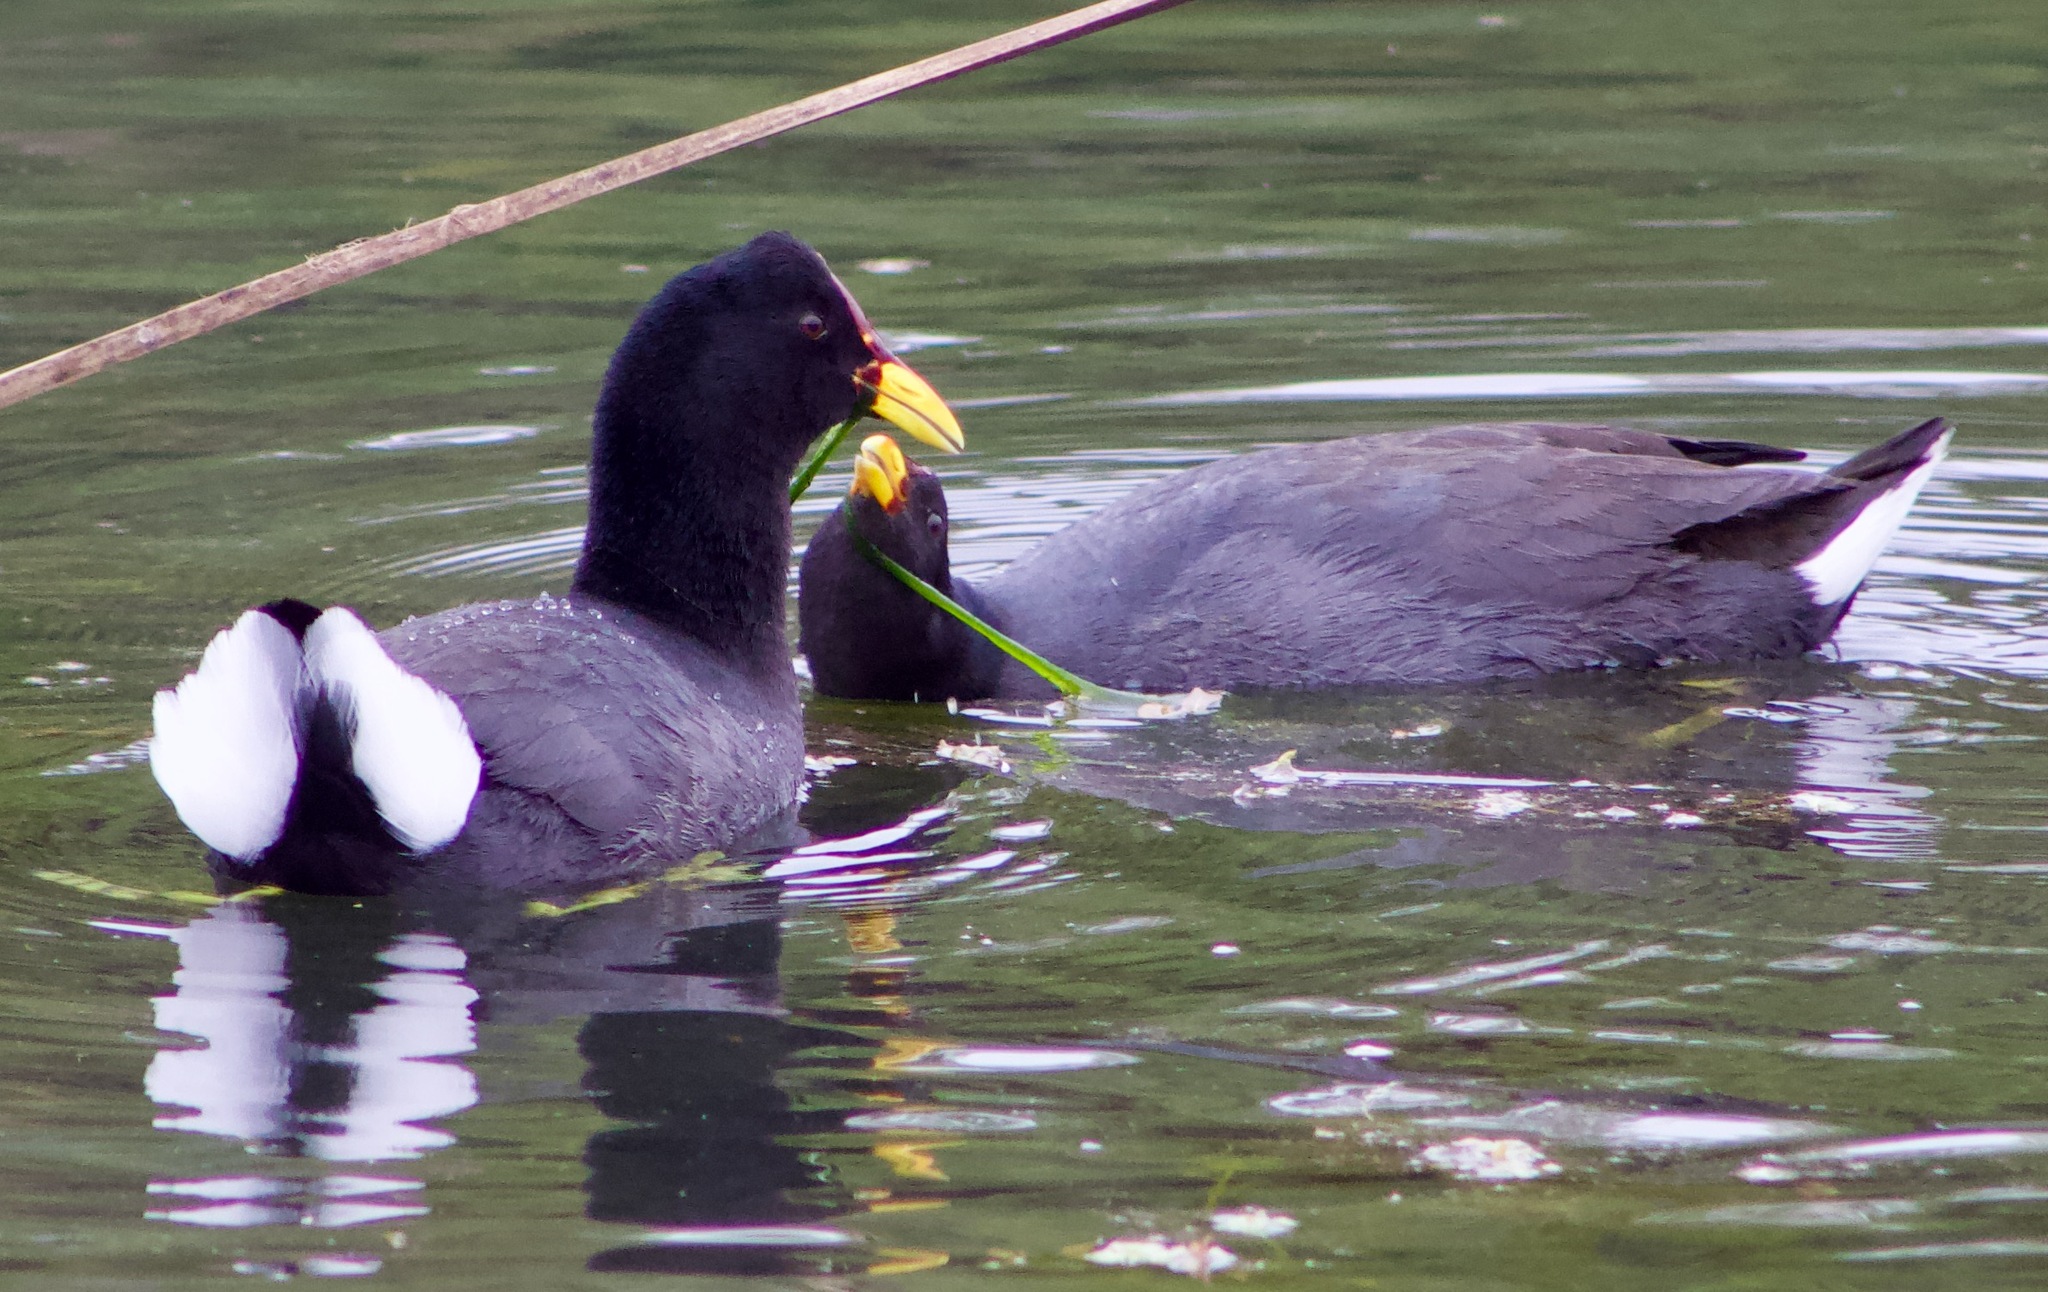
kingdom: Animalia
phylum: Chordata
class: Aves
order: Gruiformes
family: Rallidae
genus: Fulica
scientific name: Fulica rufifrons
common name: Red-fronted coot
